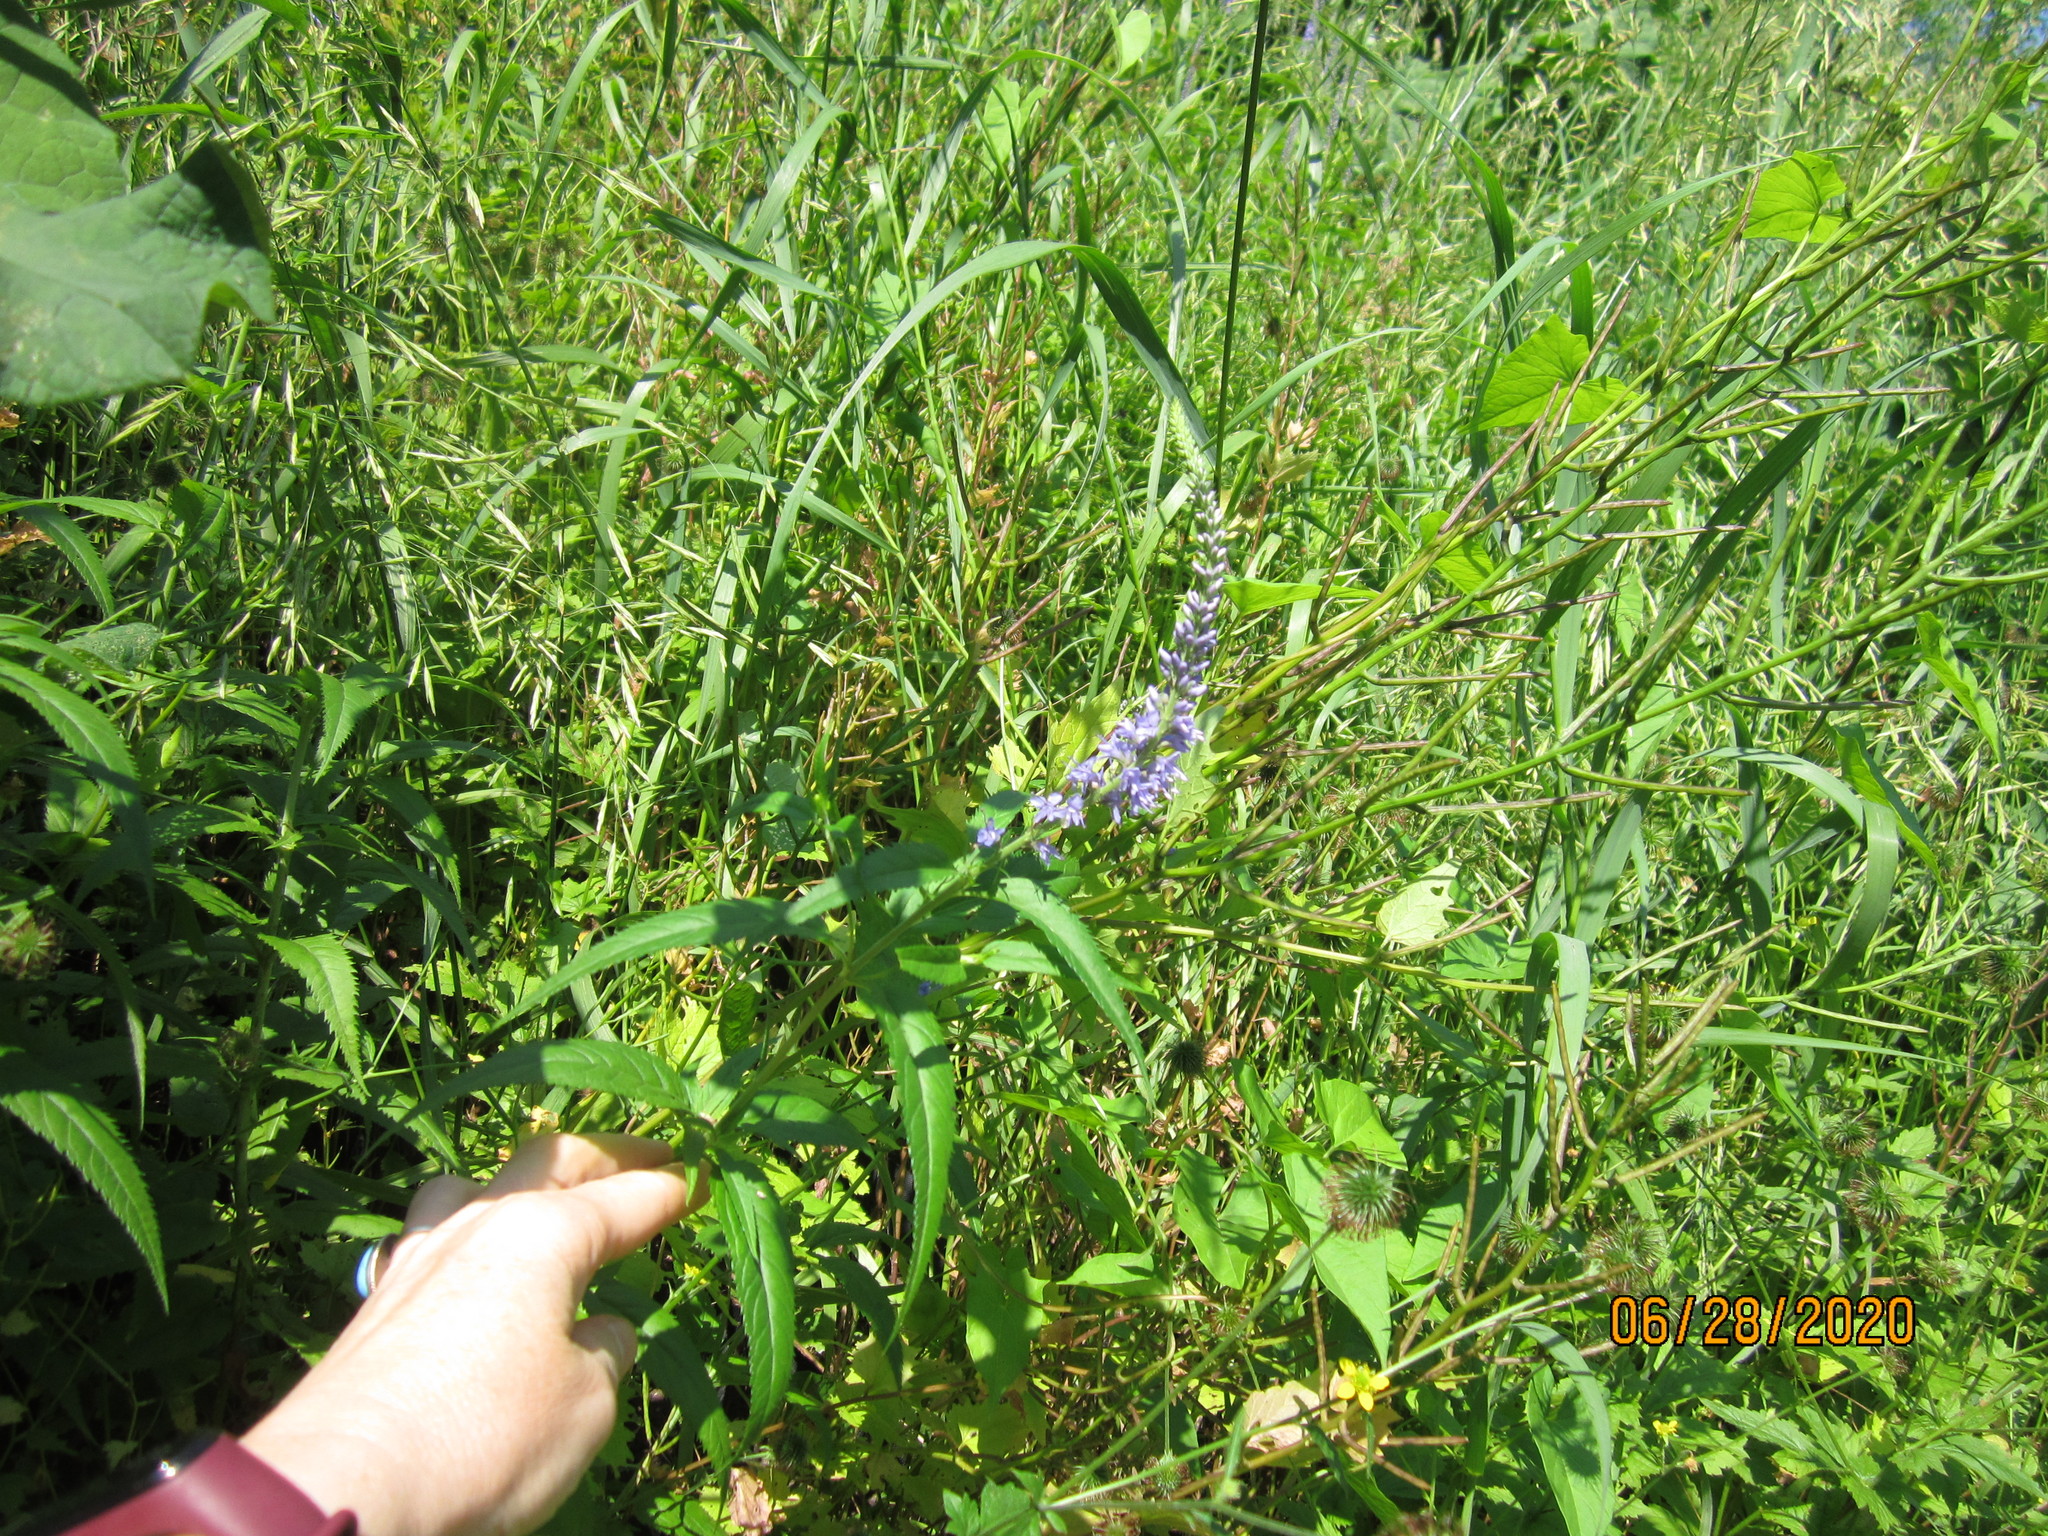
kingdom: Plantae
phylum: Tracheophyta
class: Magnoliopsida
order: Lamiales
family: Plantaginaceae
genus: Veronica
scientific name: Veronica longifolia
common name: Garden speedwell
